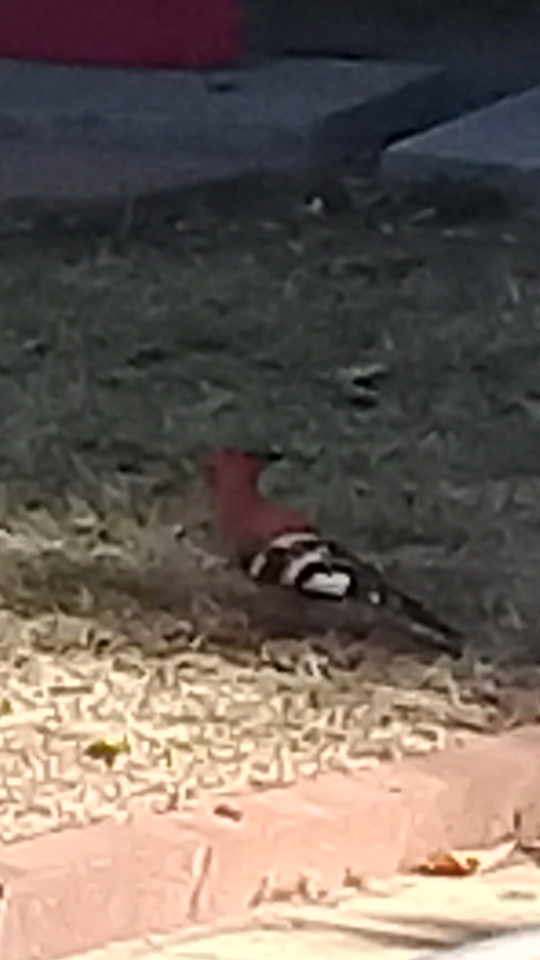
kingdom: Animalia
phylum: Chordata
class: Aves
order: Bucerotiformes
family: Upupidae
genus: Upupa
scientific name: Upupa africana
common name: African hoopoe
